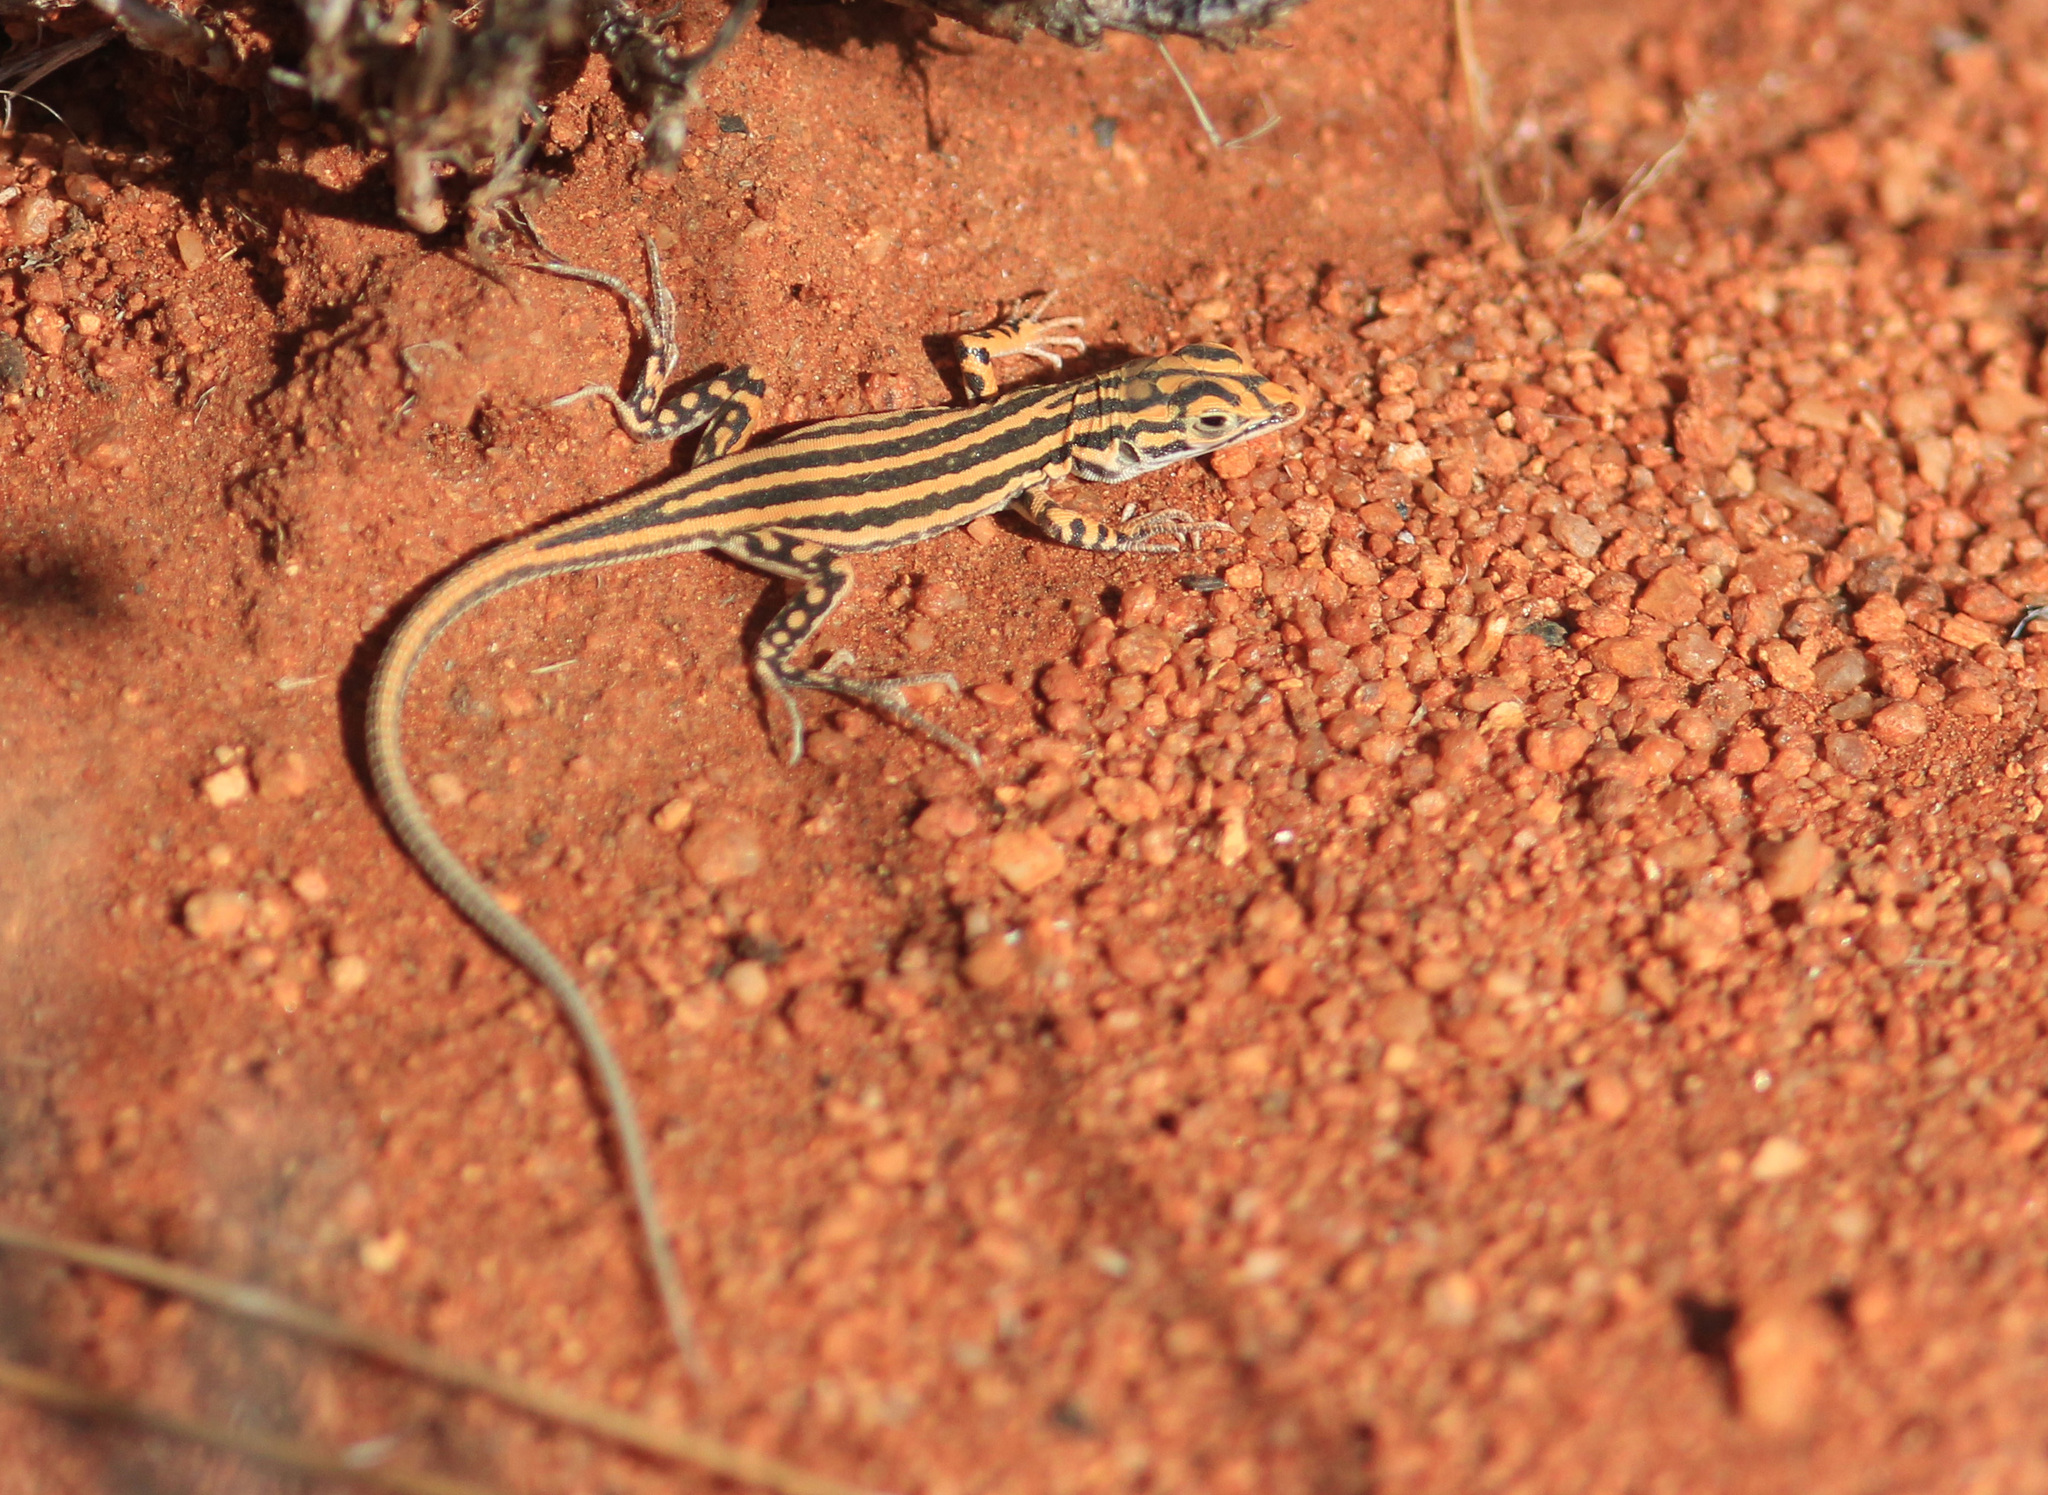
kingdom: Animalia
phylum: Chordata
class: Squamata
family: Lacertidae
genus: Meroles
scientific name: Meroles suborbitalis
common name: Spotted sand lizard
